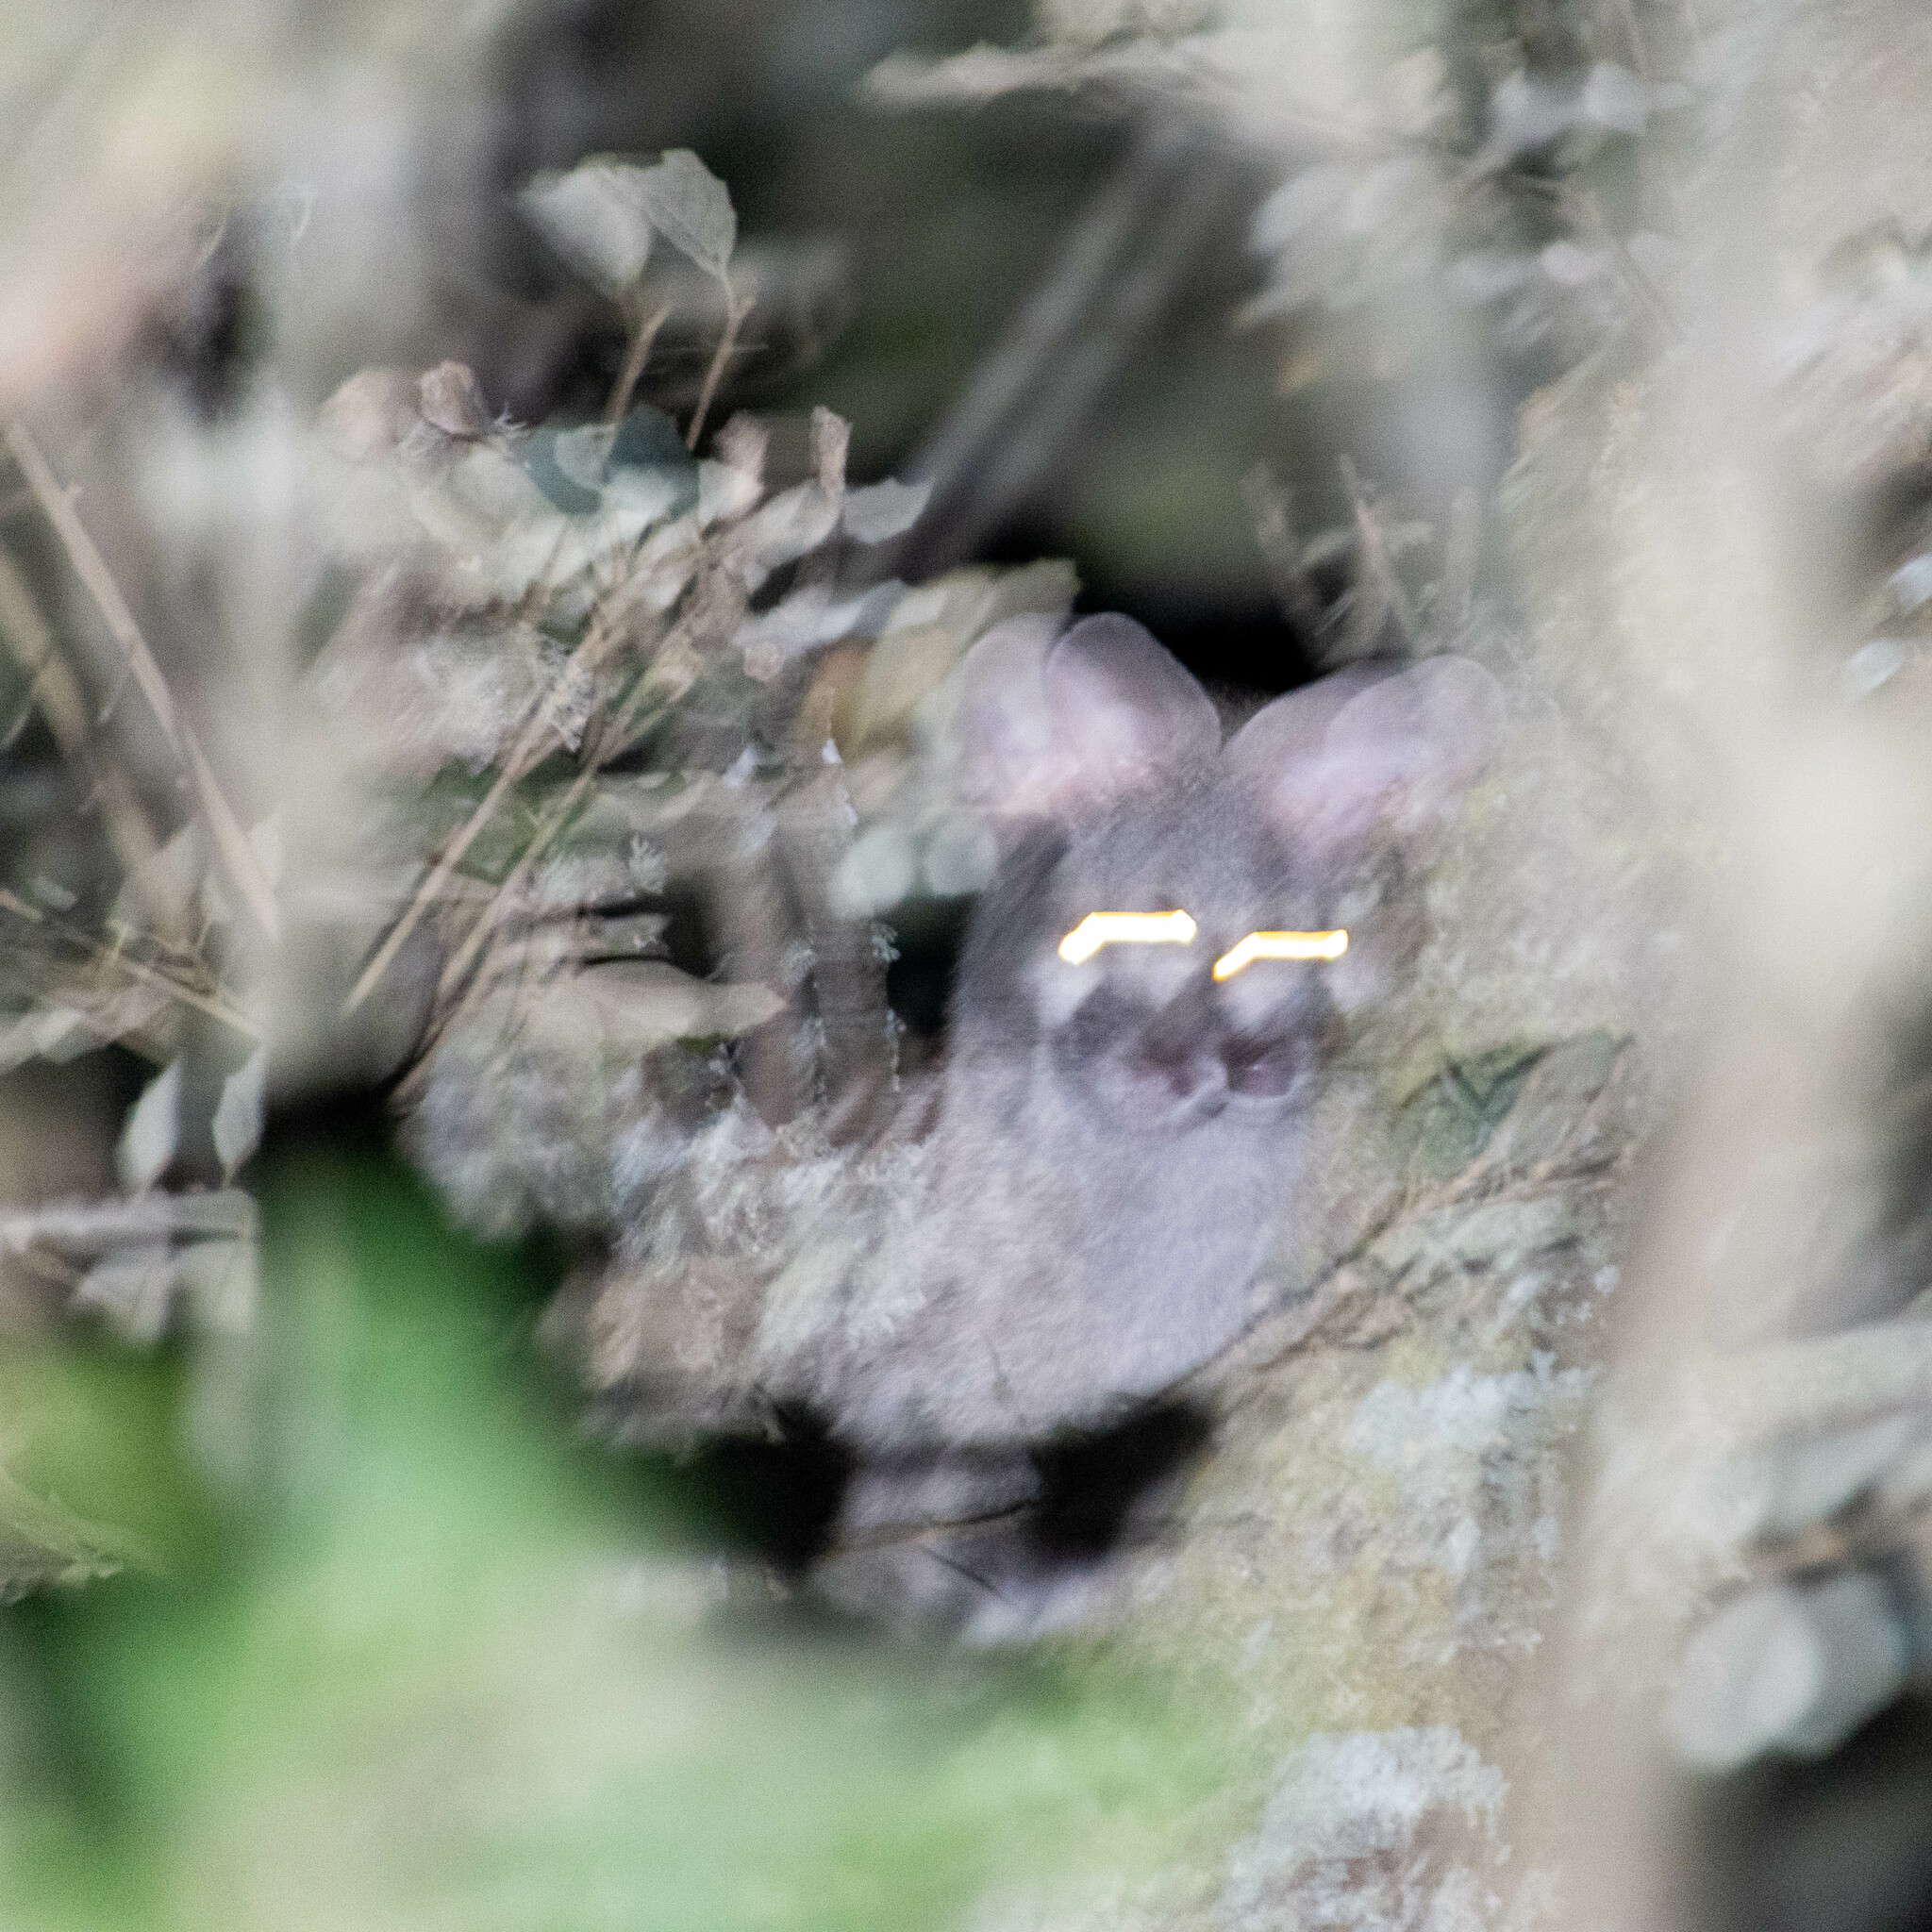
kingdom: Animalia
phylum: Chordata
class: Mammalia
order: Carnivora
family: Viverridae
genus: Genetta
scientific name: Genetta genetta
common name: Common genet
